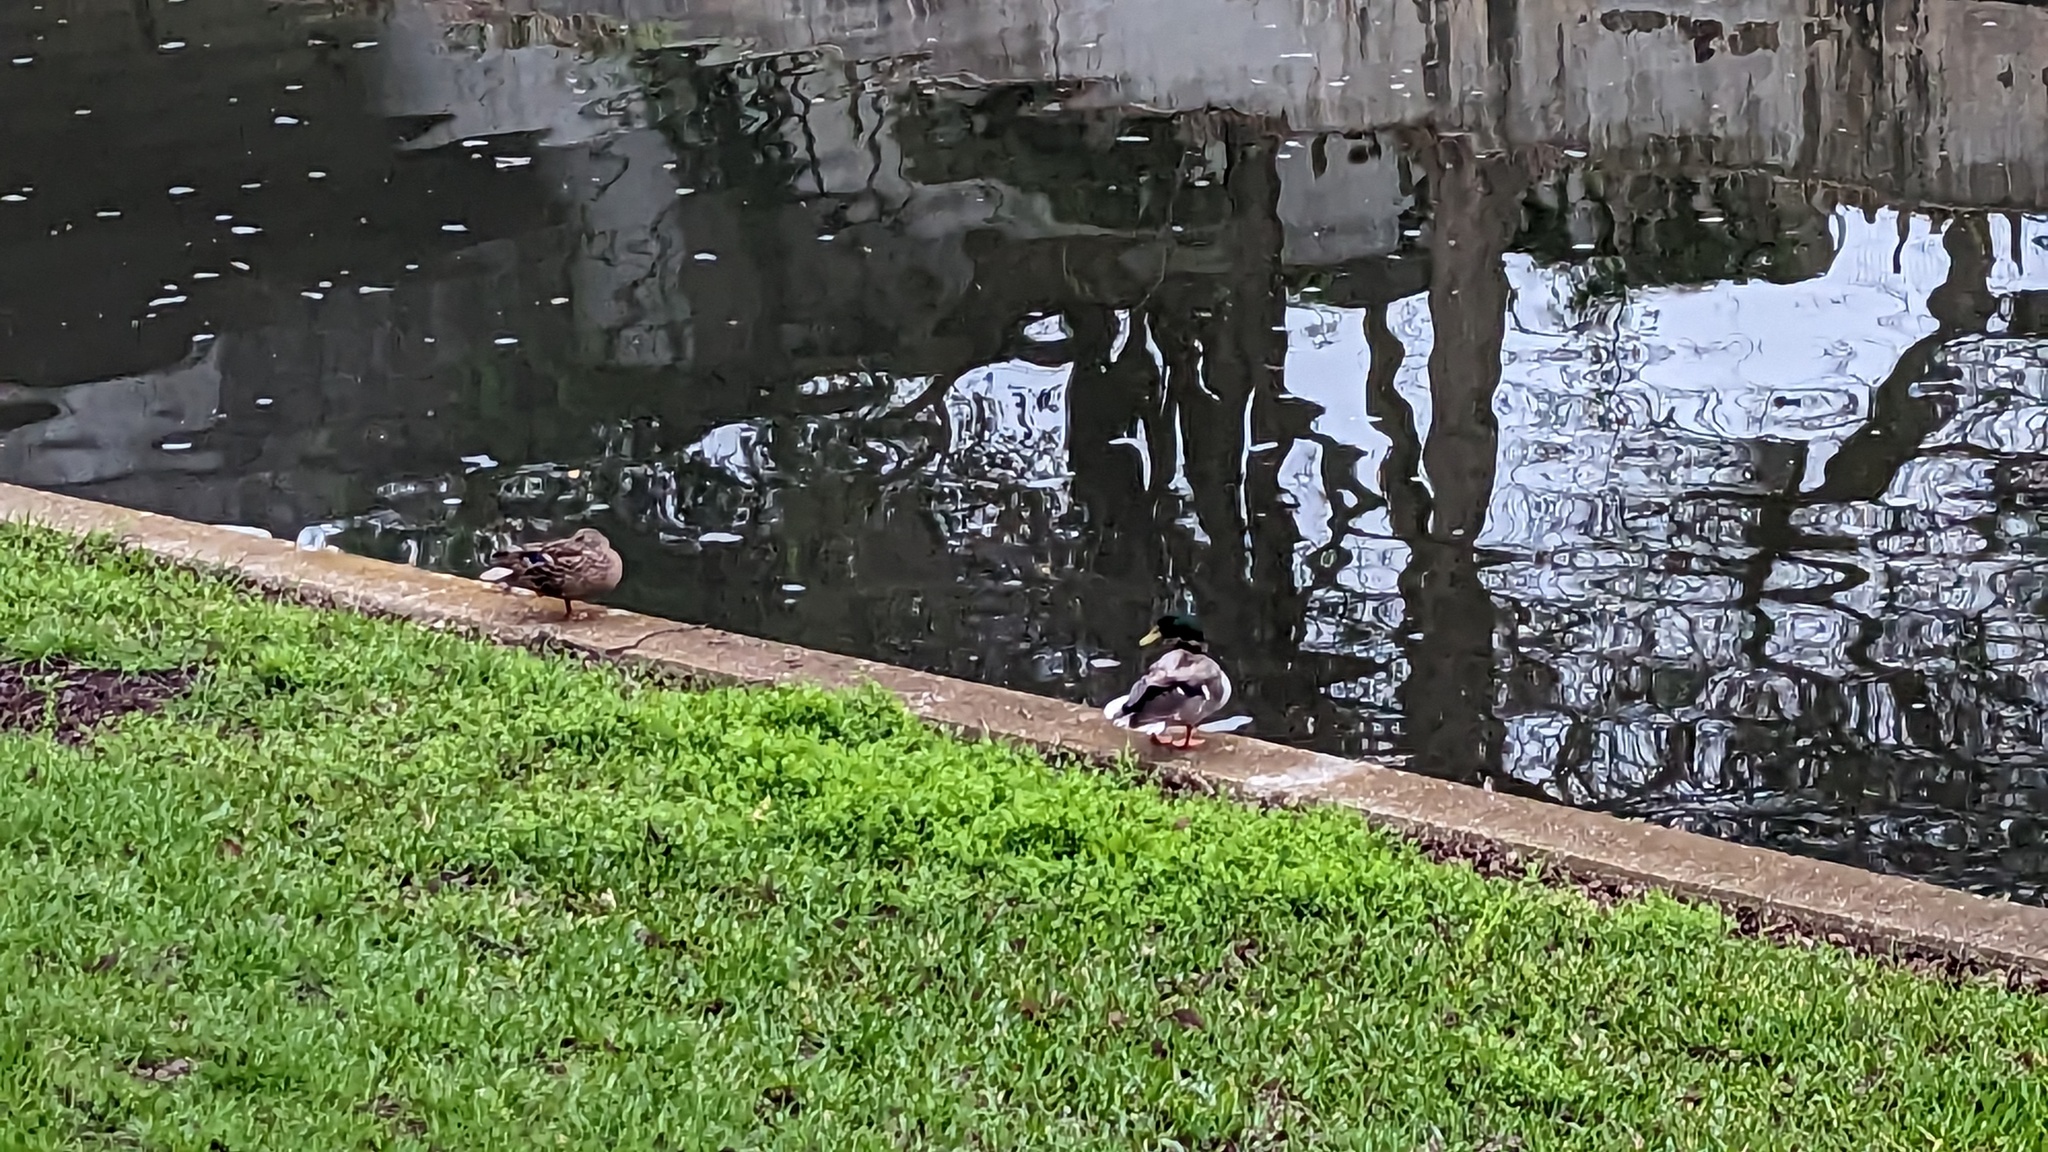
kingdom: Animalia
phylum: Chordata
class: Aves
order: Anseriformes
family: Anatidae
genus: Anas
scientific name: Anas platyrhynchos
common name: Mallard
